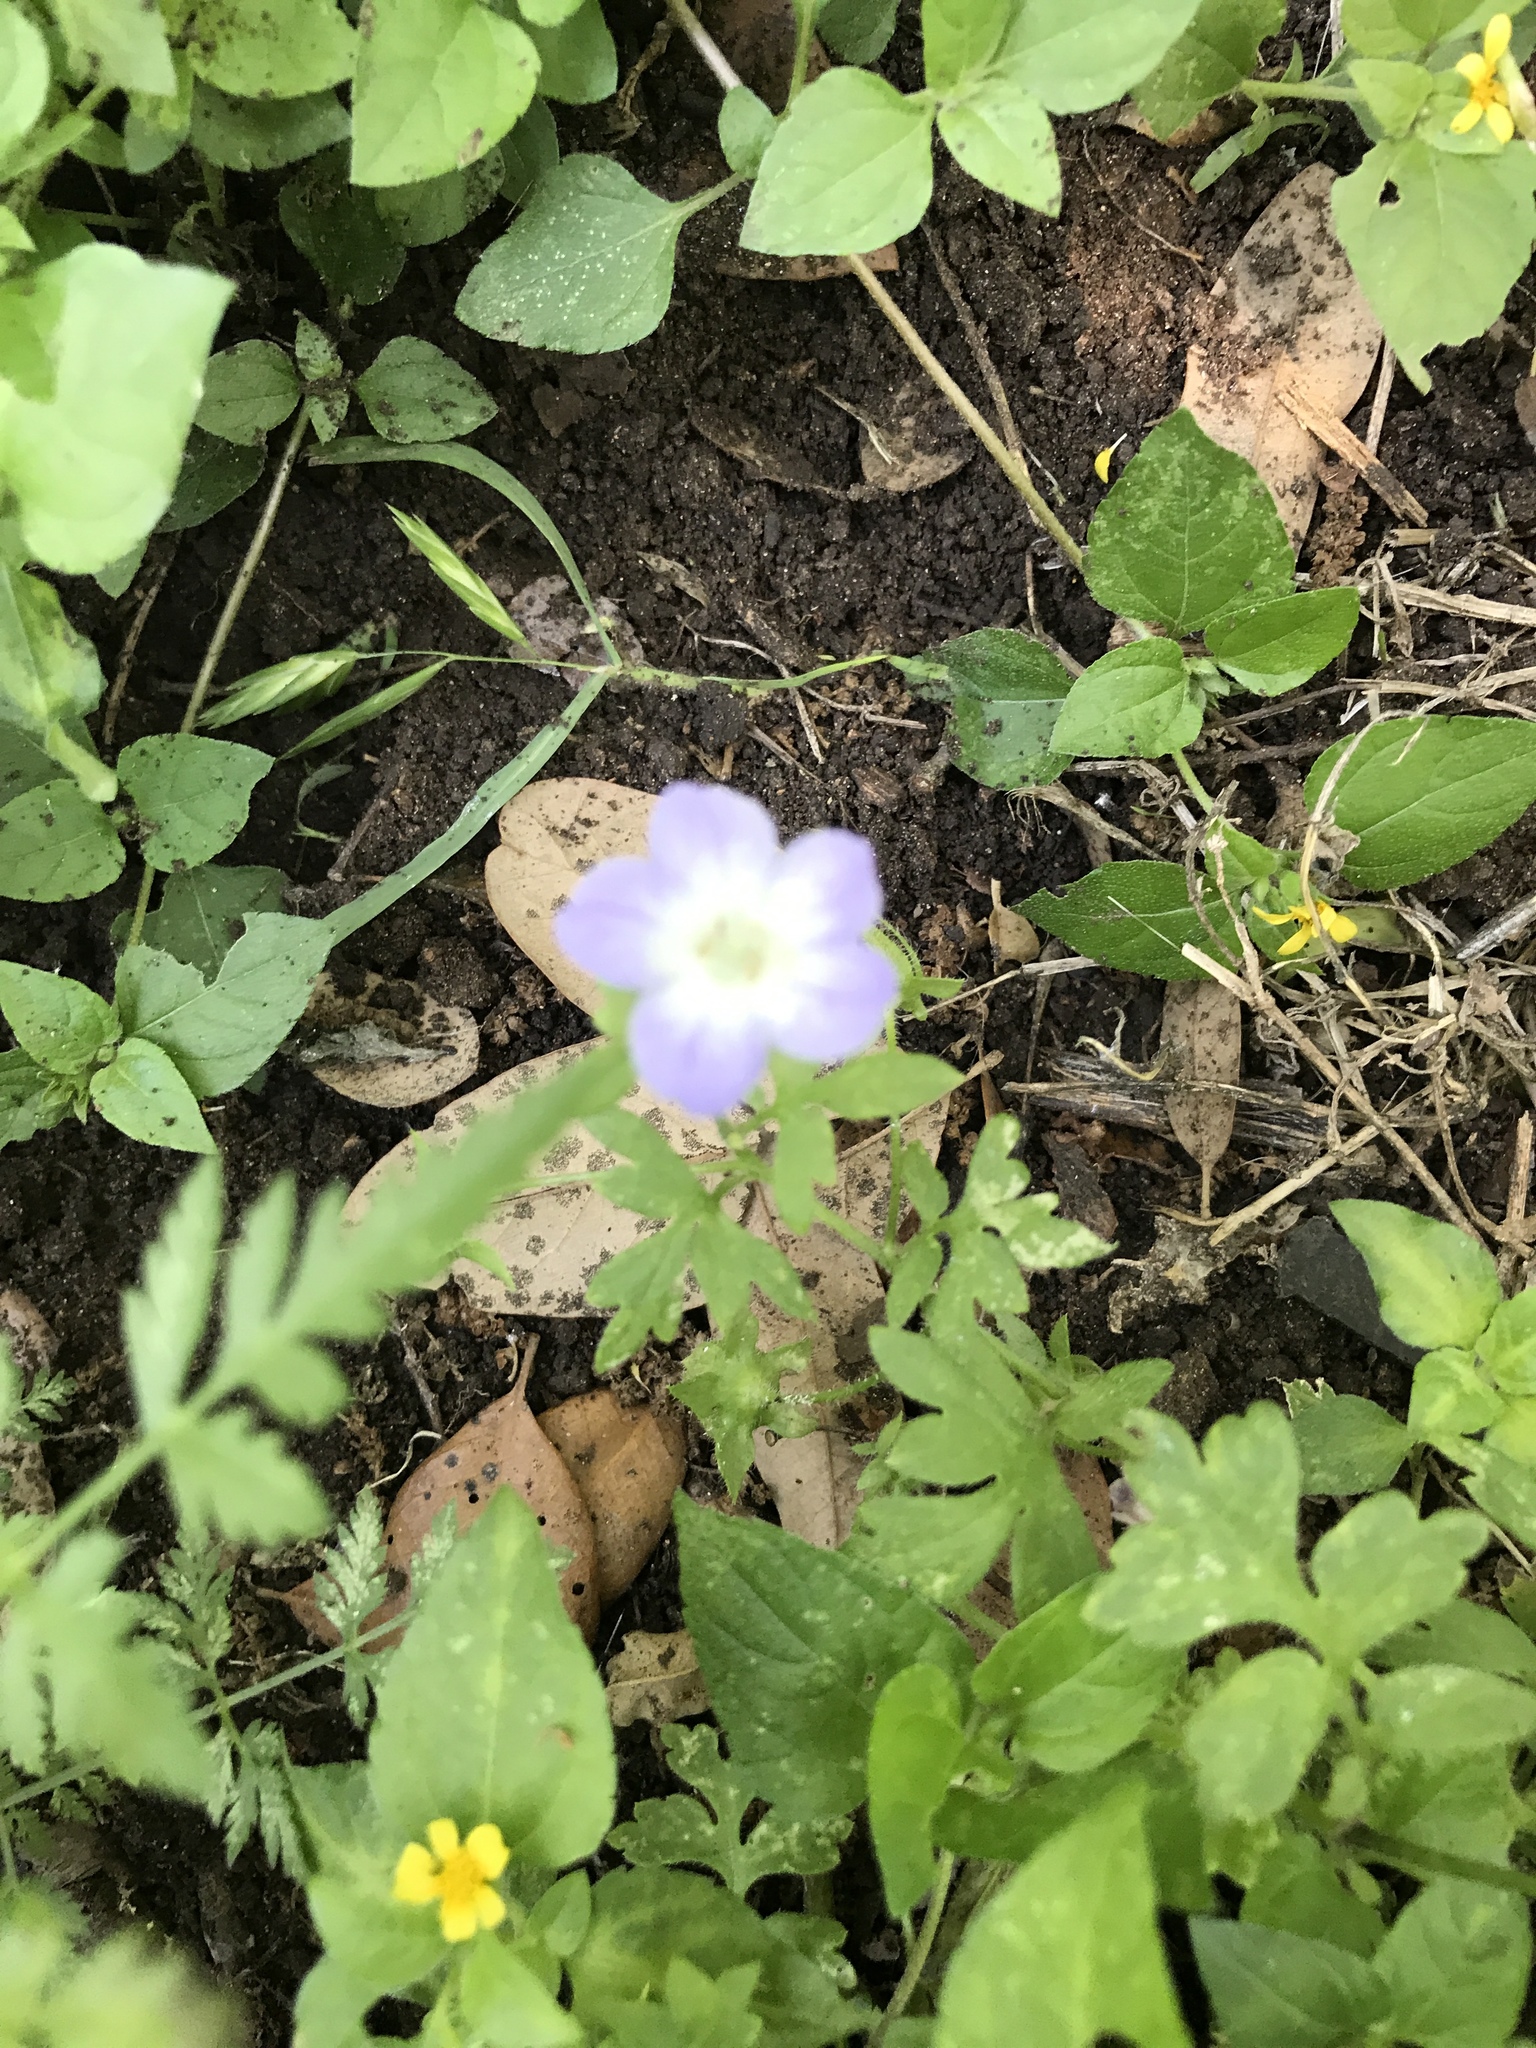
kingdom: Plantae
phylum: Tracheophyta
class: Magnoliopsida
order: Boraginales
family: Hydrophyllaceae
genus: Nemophila
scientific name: Nemophila phacelioides
